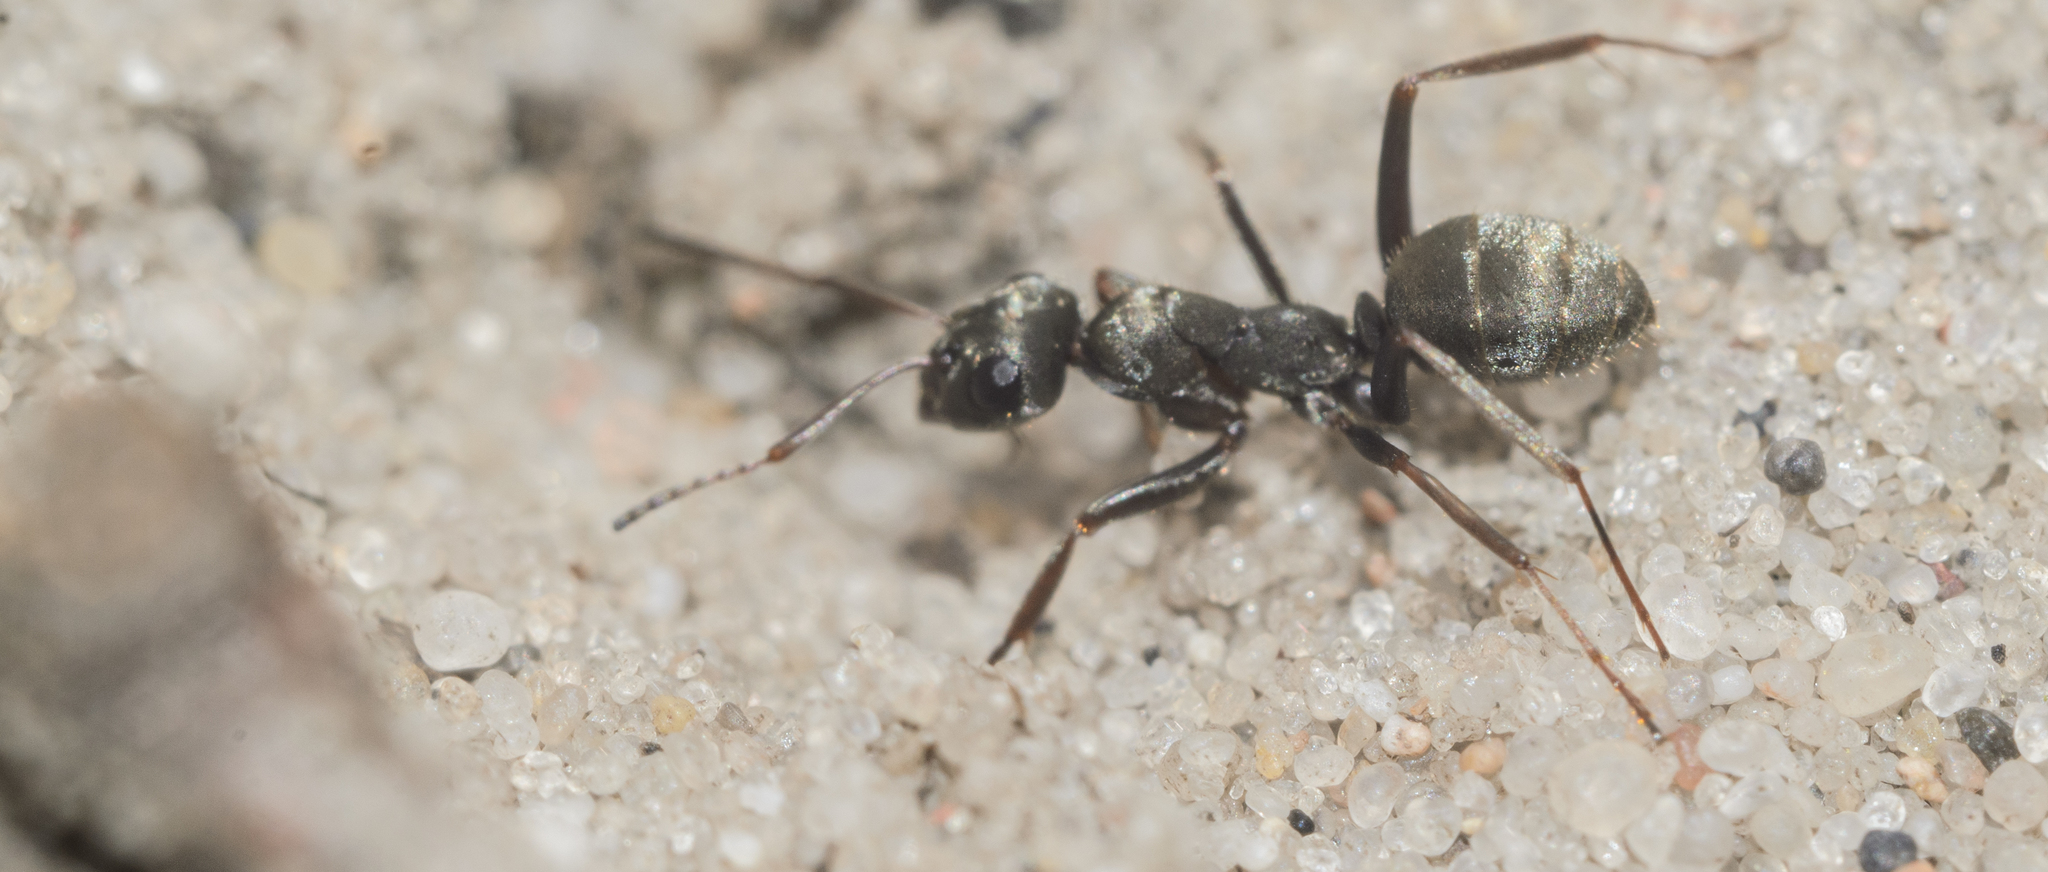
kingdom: Animalia
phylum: Arthropoda
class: Insecta
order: Hymenoptera
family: Formicidae
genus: Formica
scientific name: Formica
